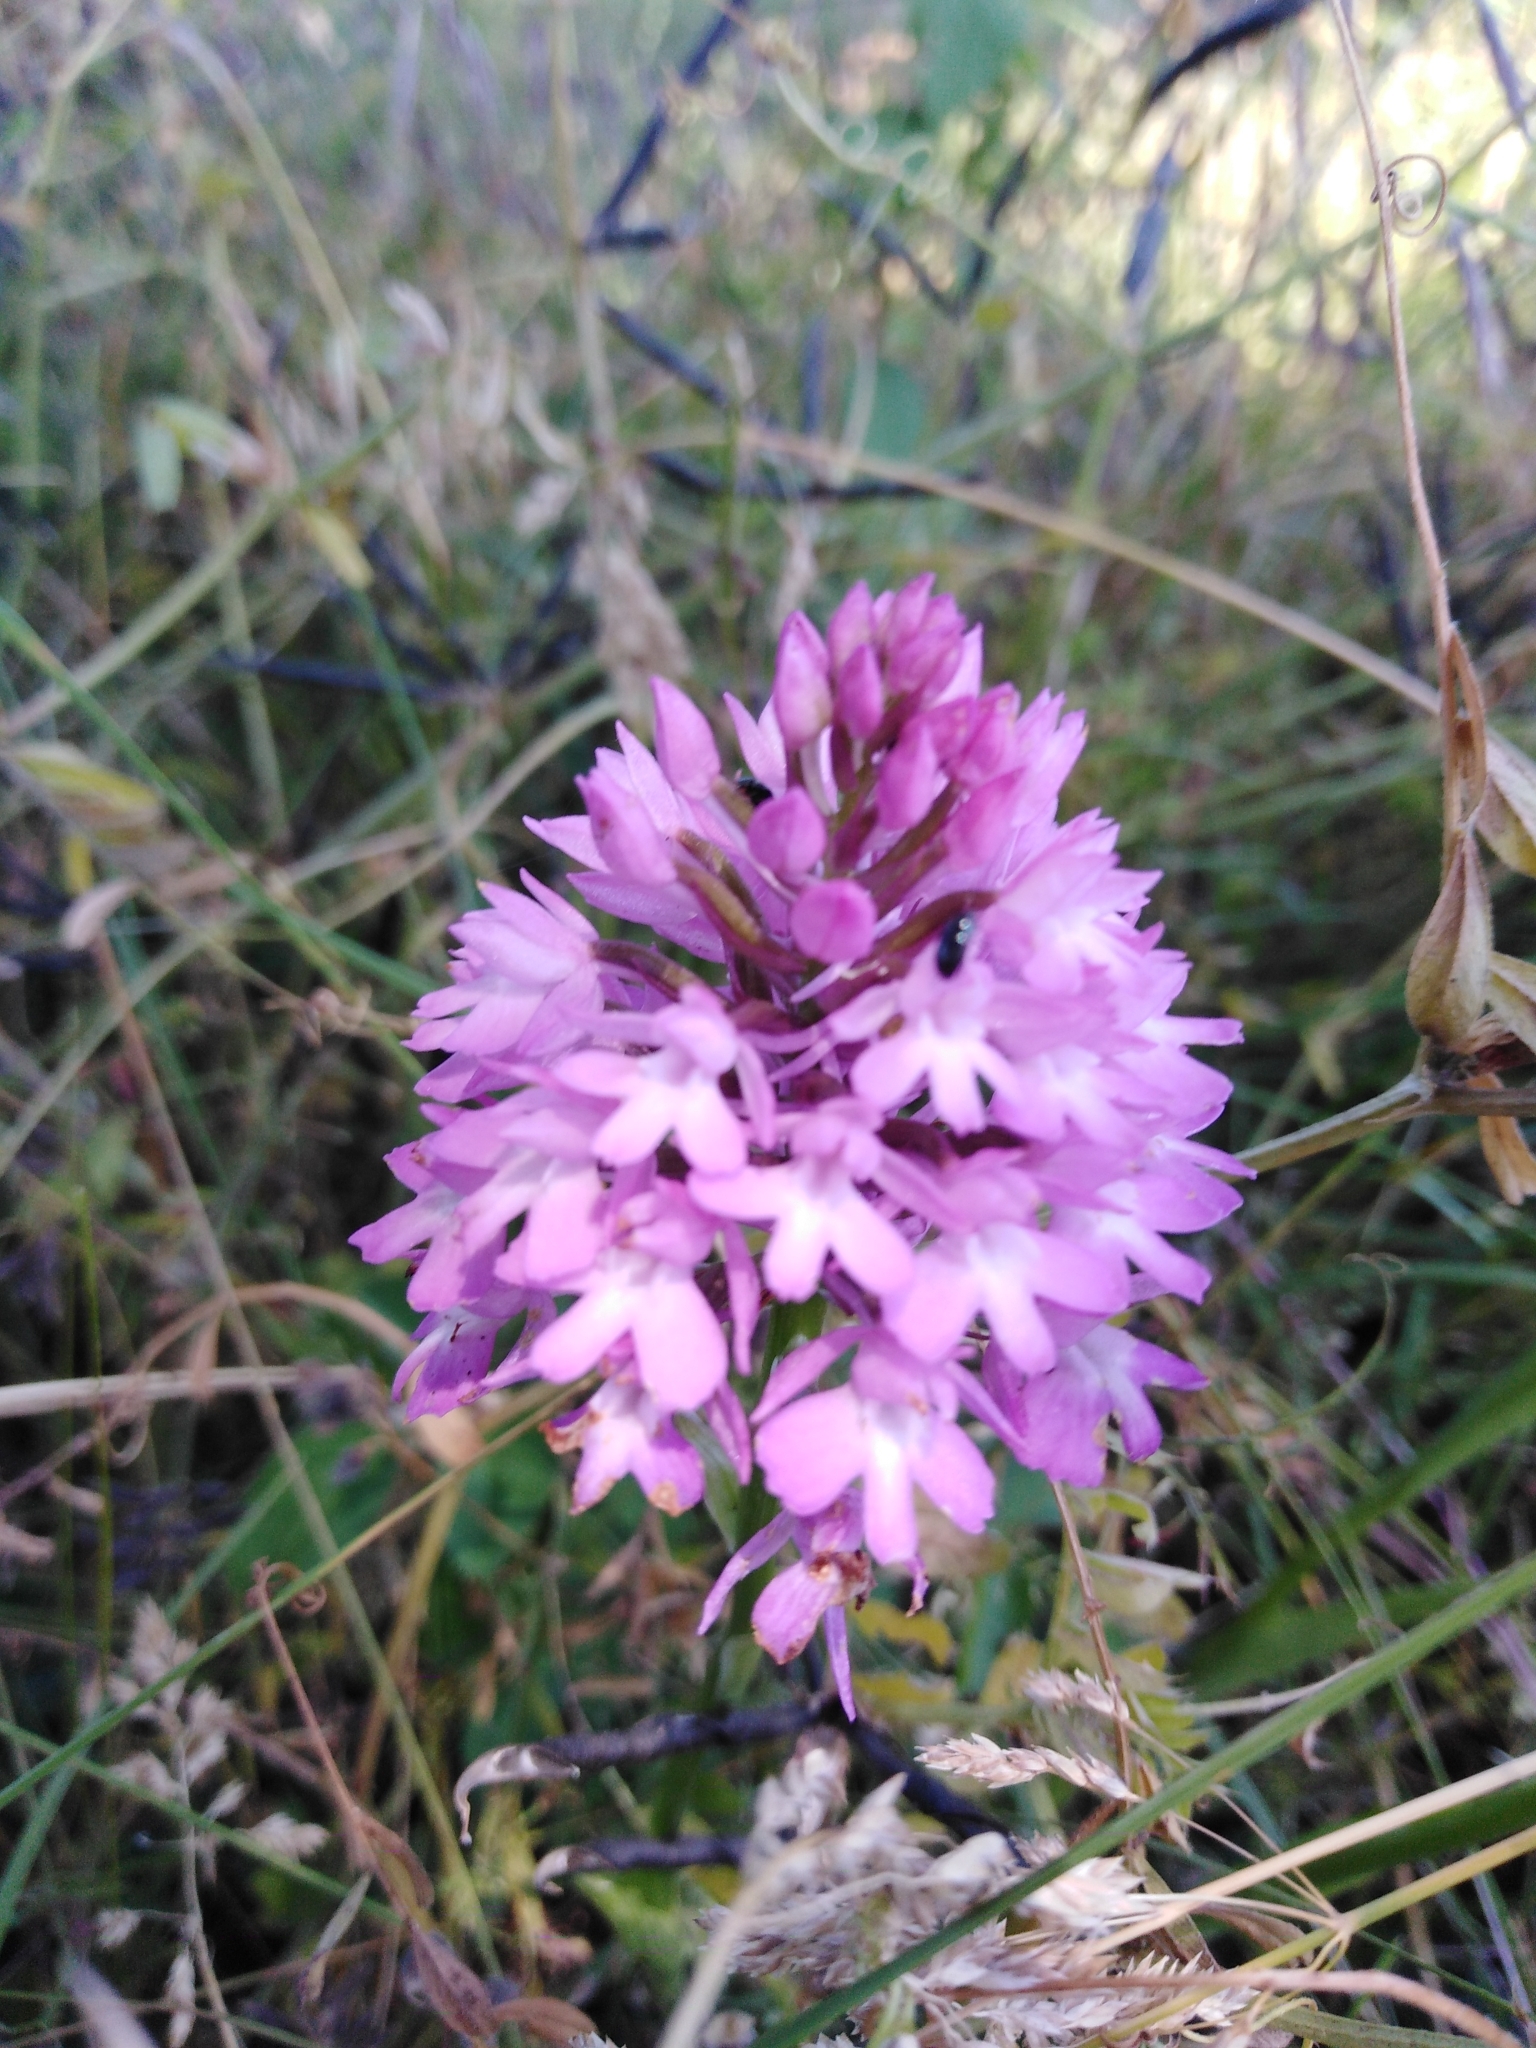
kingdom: Plantae
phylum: Tracheophyta
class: Liliopsida
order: Asparagales
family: Orchidaceae
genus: Anacamptis
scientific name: Anacamptis pyramidalis
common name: Pyramidal orchid
